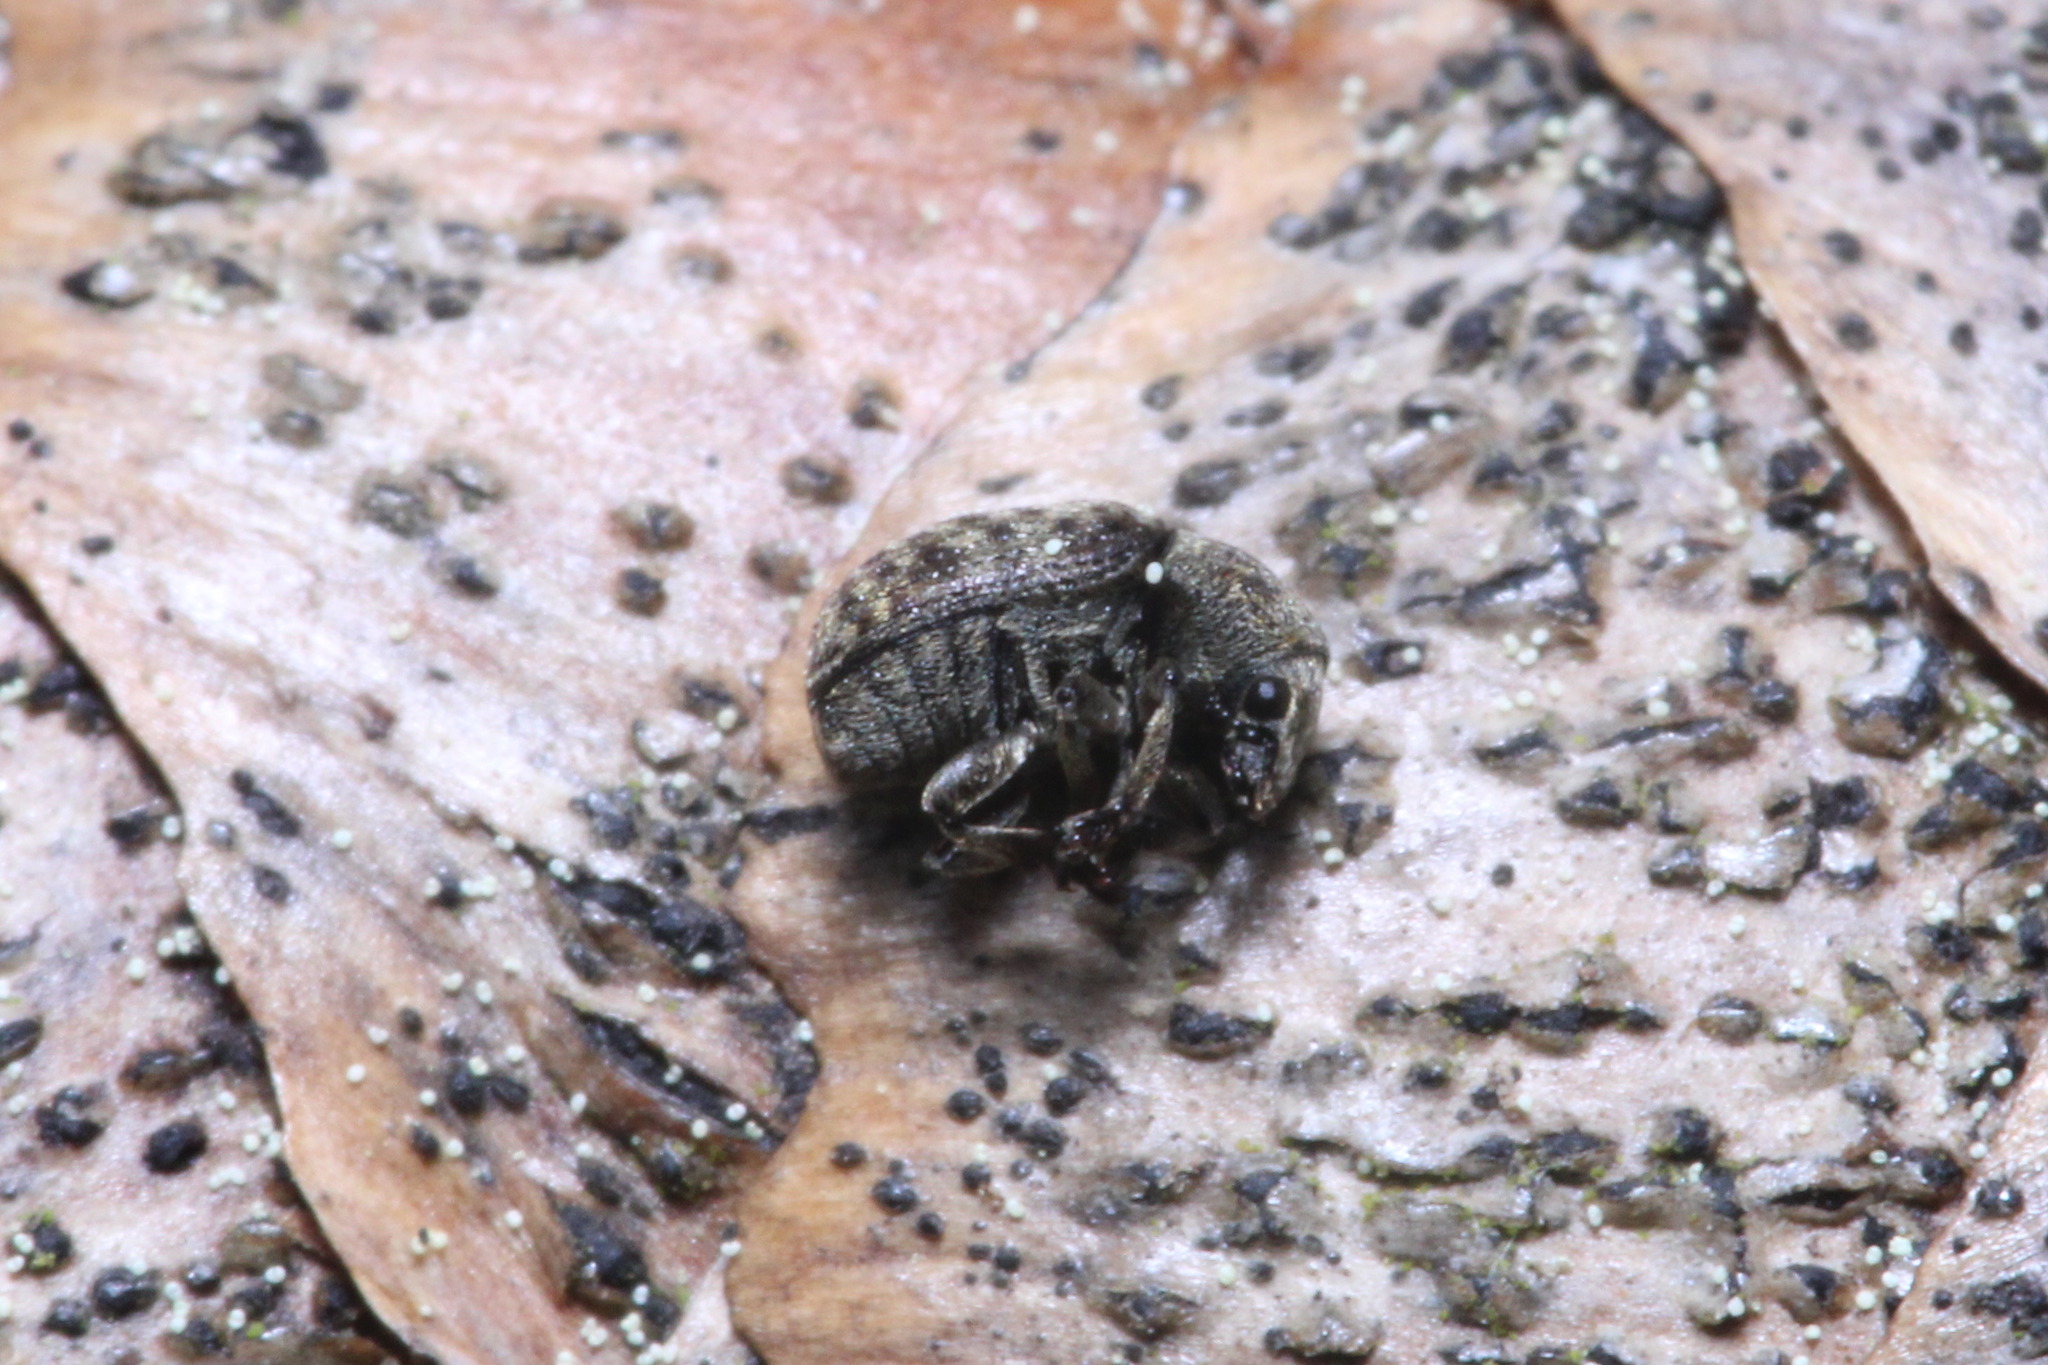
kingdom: Animalia
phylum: Arthropoda
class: Insecta
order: Coleoptera
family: Anthribidae
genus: Anthribus
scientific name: Anthribus nebulosus
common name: Fungus weevil
